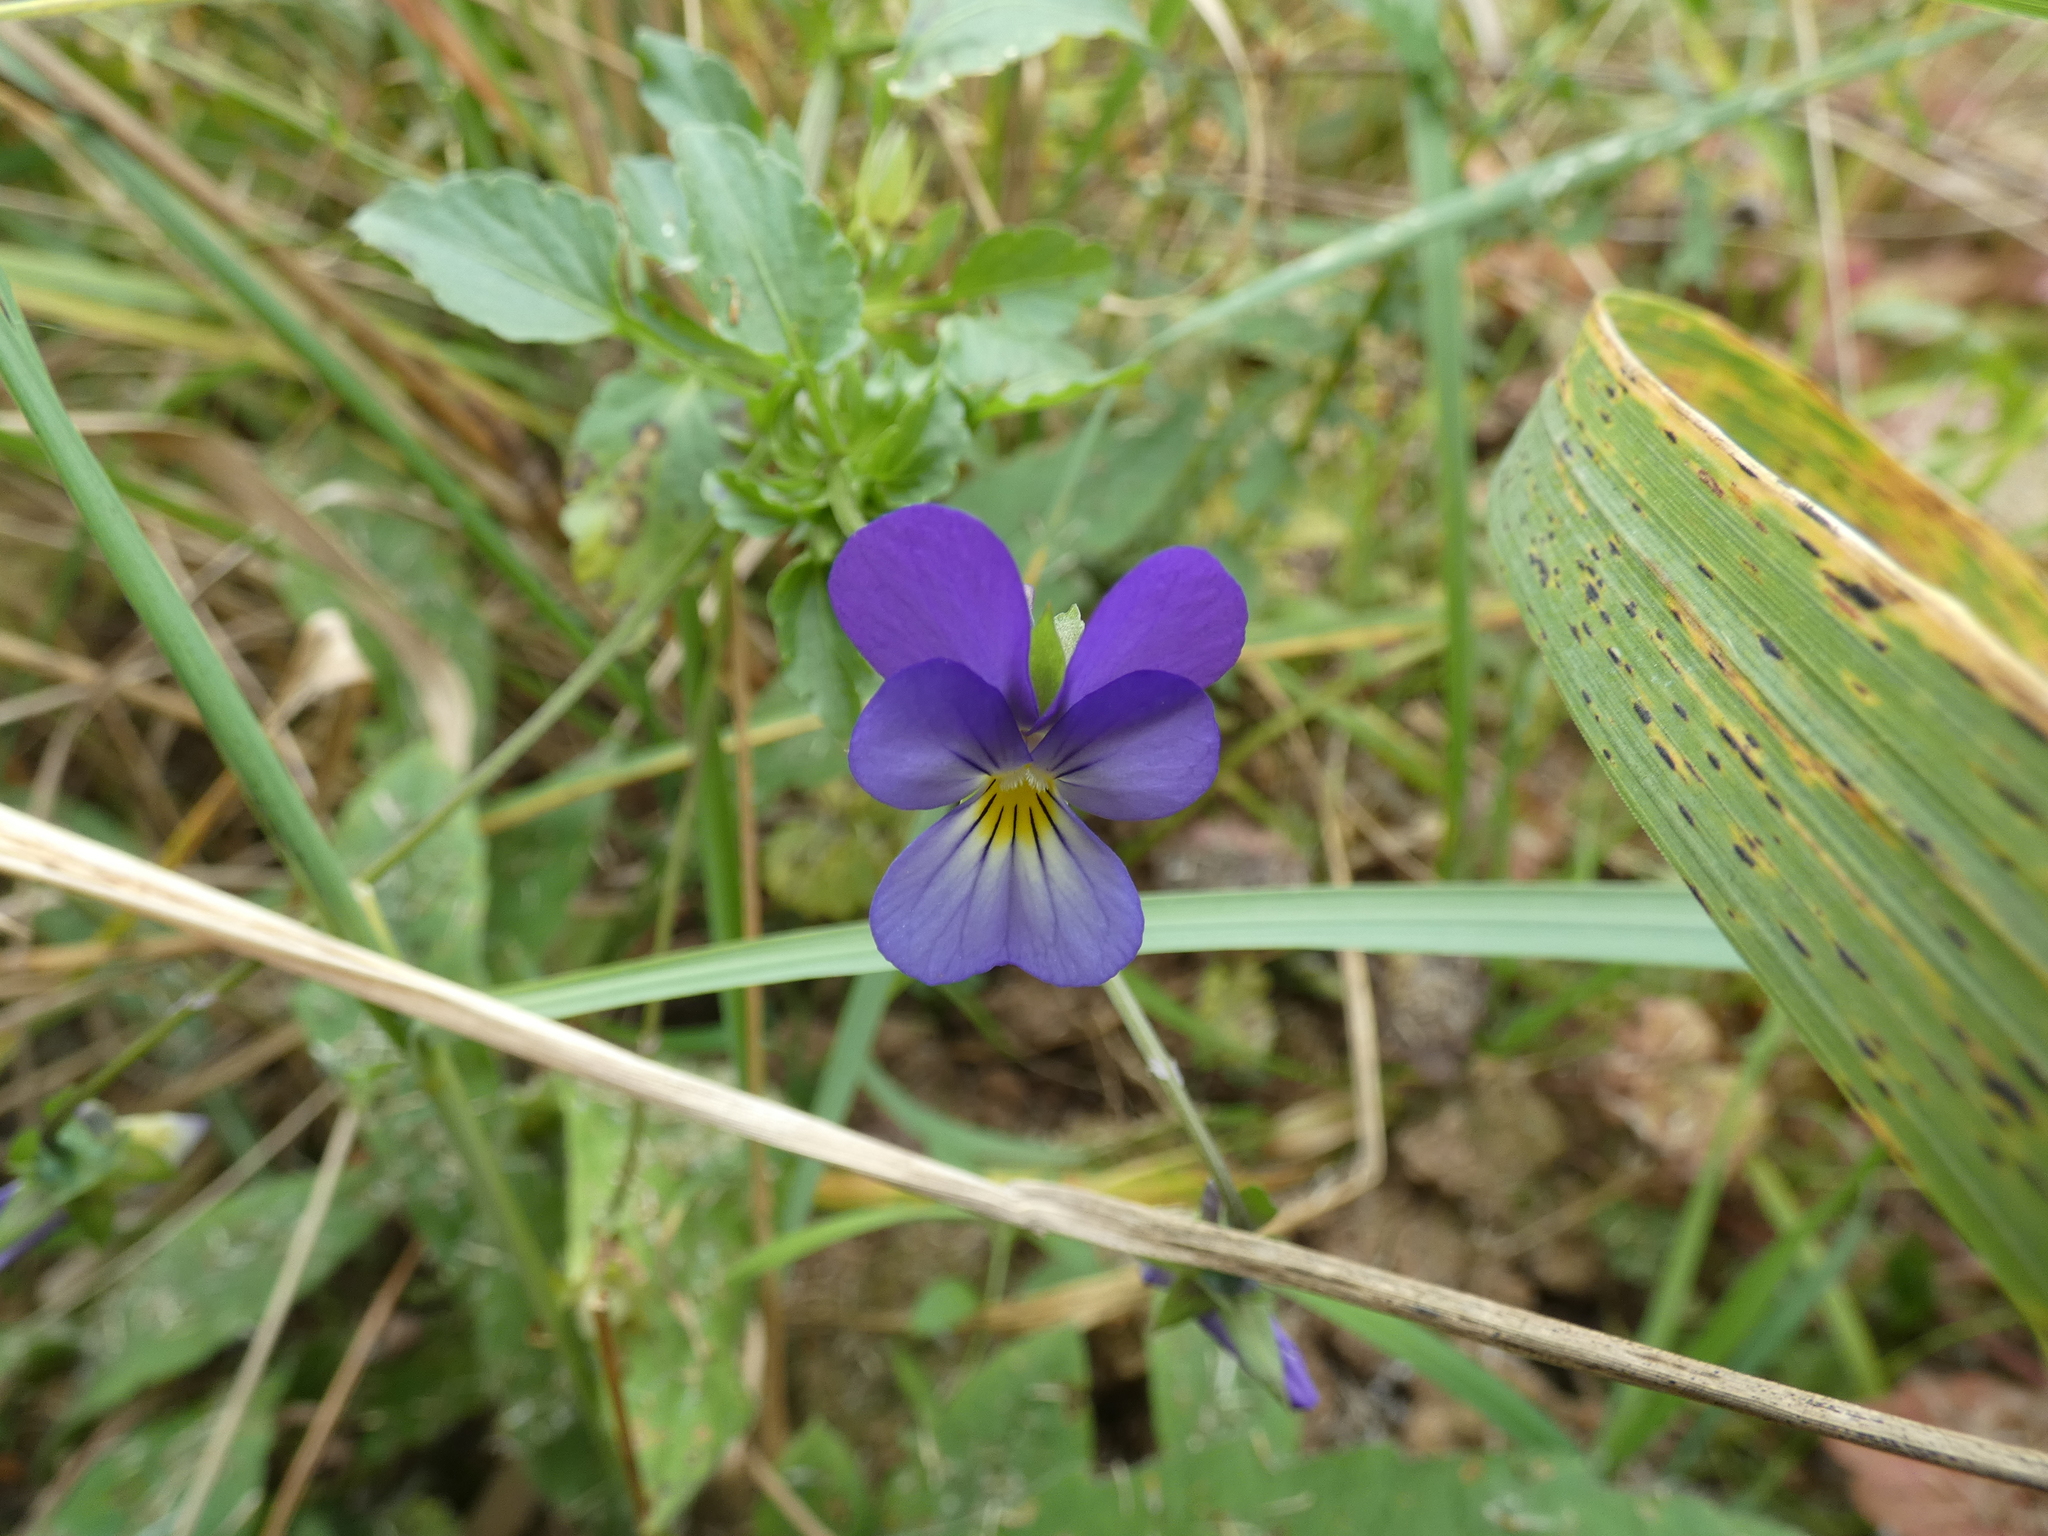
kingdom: Plantae
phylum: Tracheophyta
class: Magnoliopsida
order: Malpighiales
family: Violaceae
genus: Viola
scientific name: Viola tricolor
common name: Pansy
